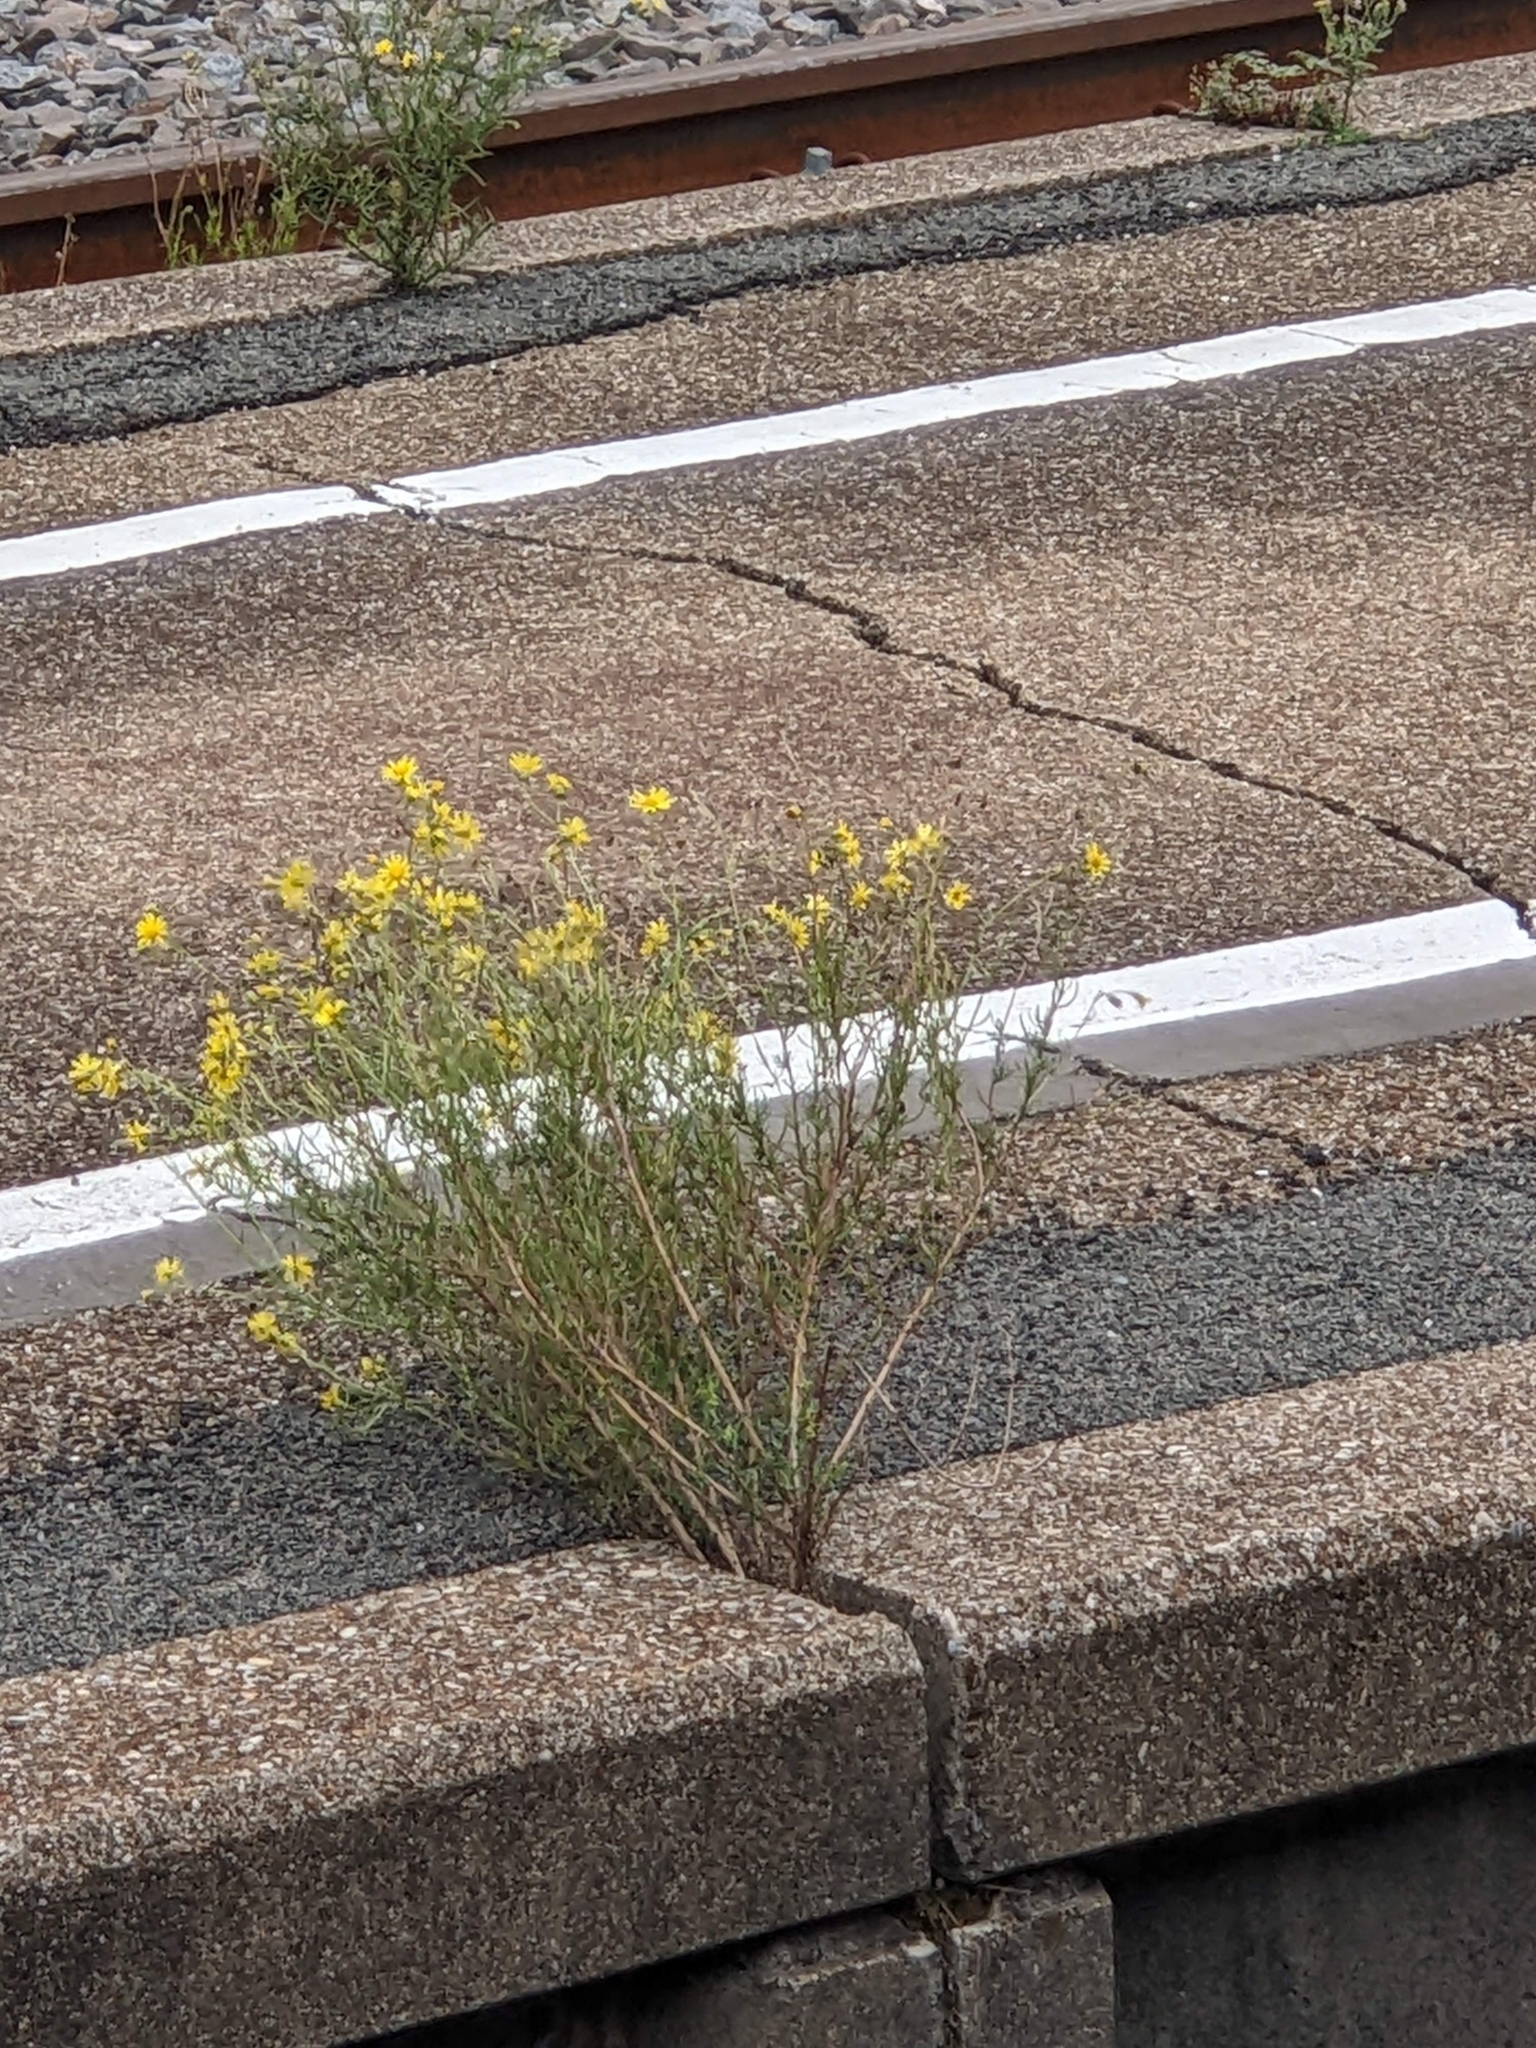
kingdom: Plantae
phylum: Tracheophyta
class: Magnoliopsida
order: Asterales
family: Asteraceae
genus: Senecio
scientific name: Senecio inaequidens
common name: Narrow-leaved ragwort
